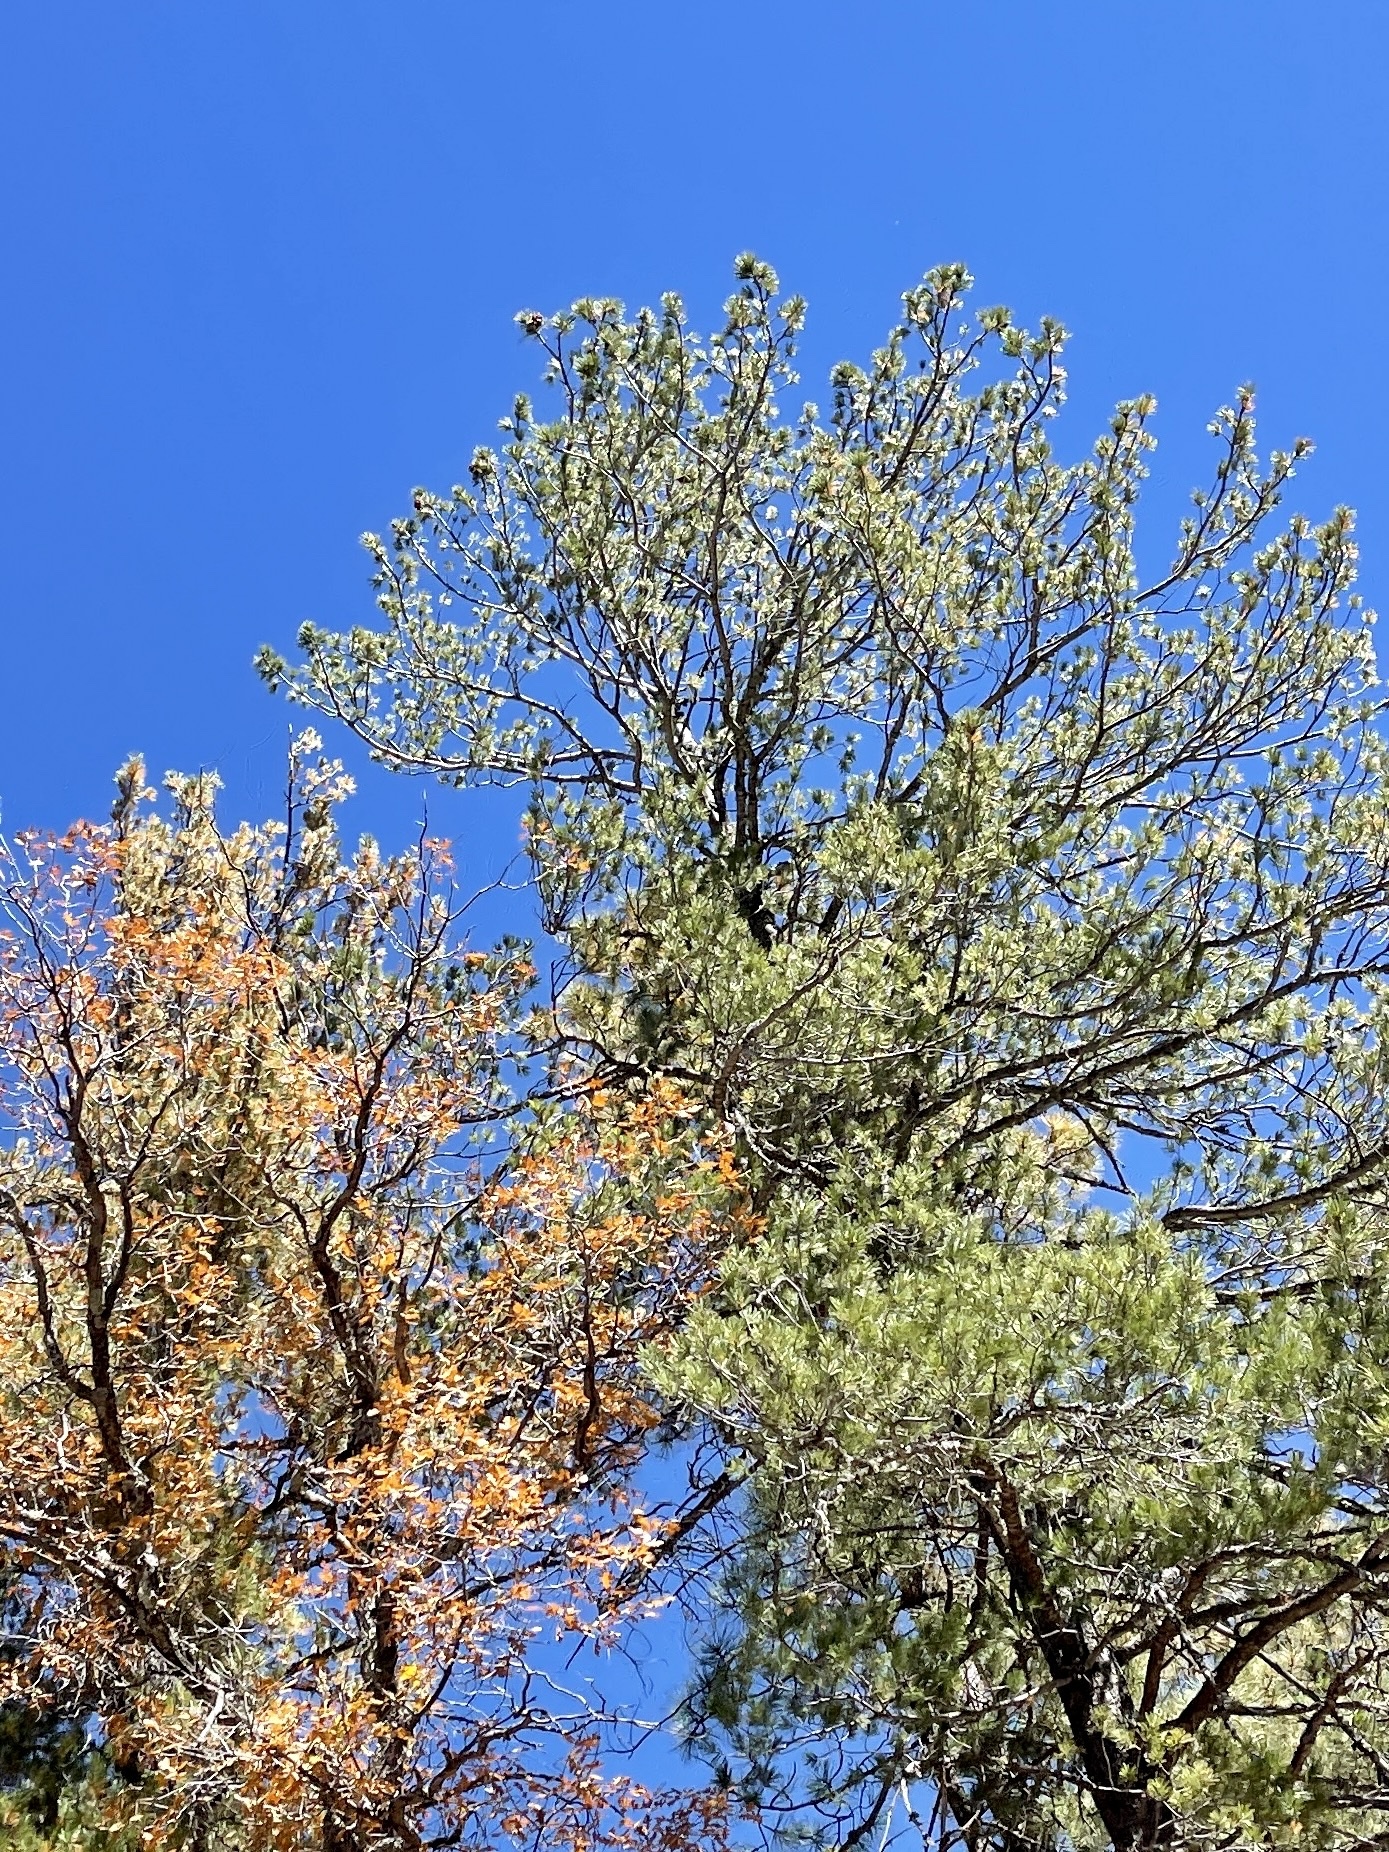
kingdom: Plantae
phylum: Tracheophyta
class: Pinopsida
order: Pinales
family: Pinaceae
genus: Pinus
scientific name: Pinus strobiformis
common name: Southwestern white pine
